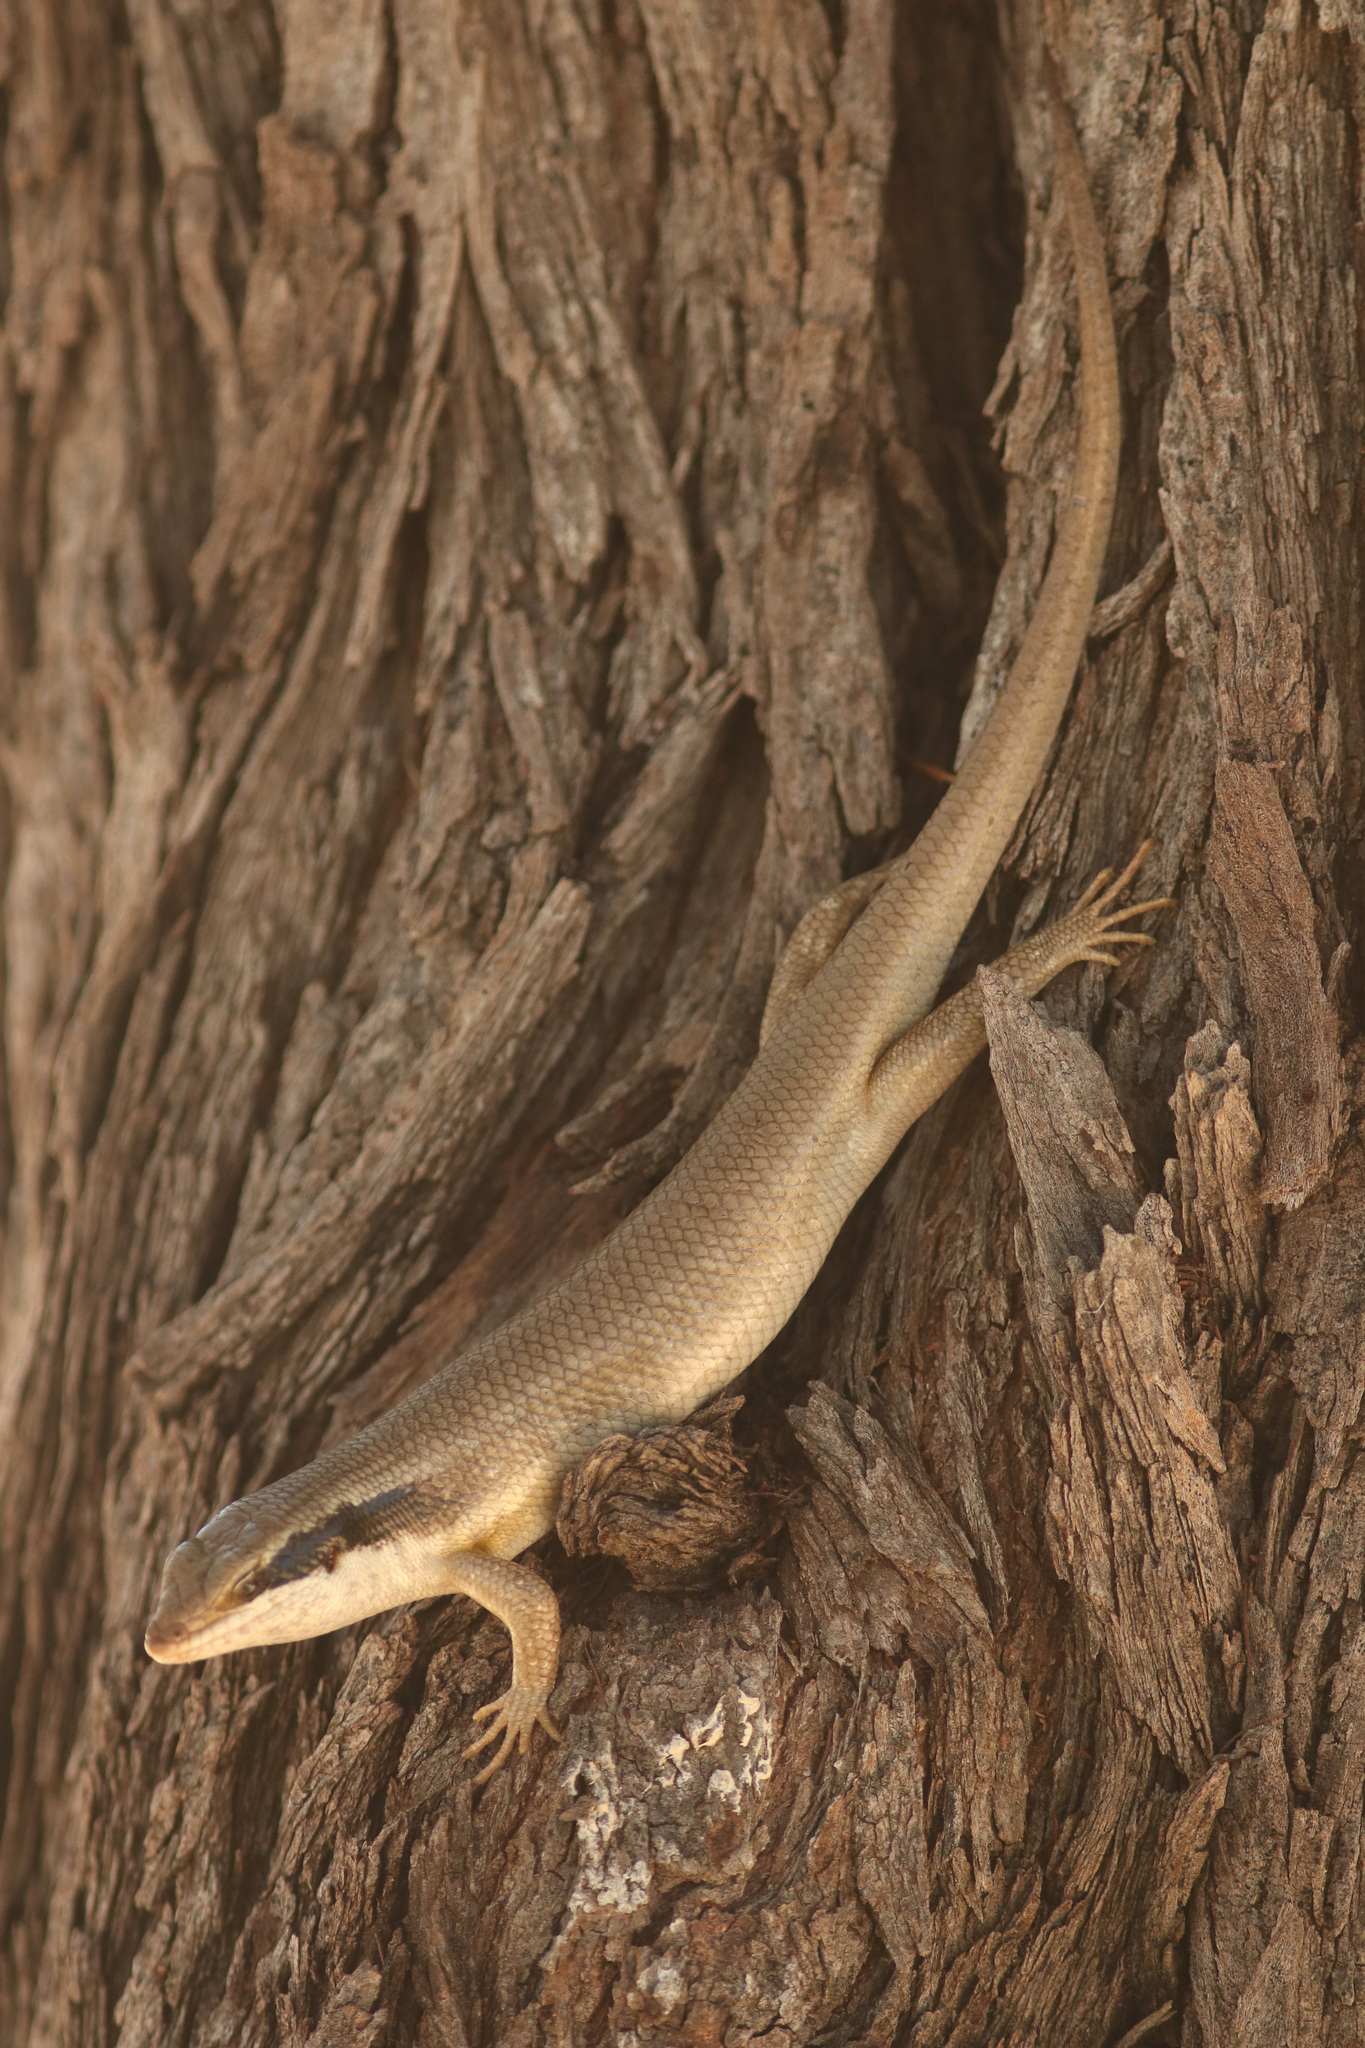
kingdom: Animalia
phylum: Chordata
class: Squamata
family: Scincidae
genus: Trachylepis
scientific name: Trachylepis binotata
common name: Bocage's mabuya
